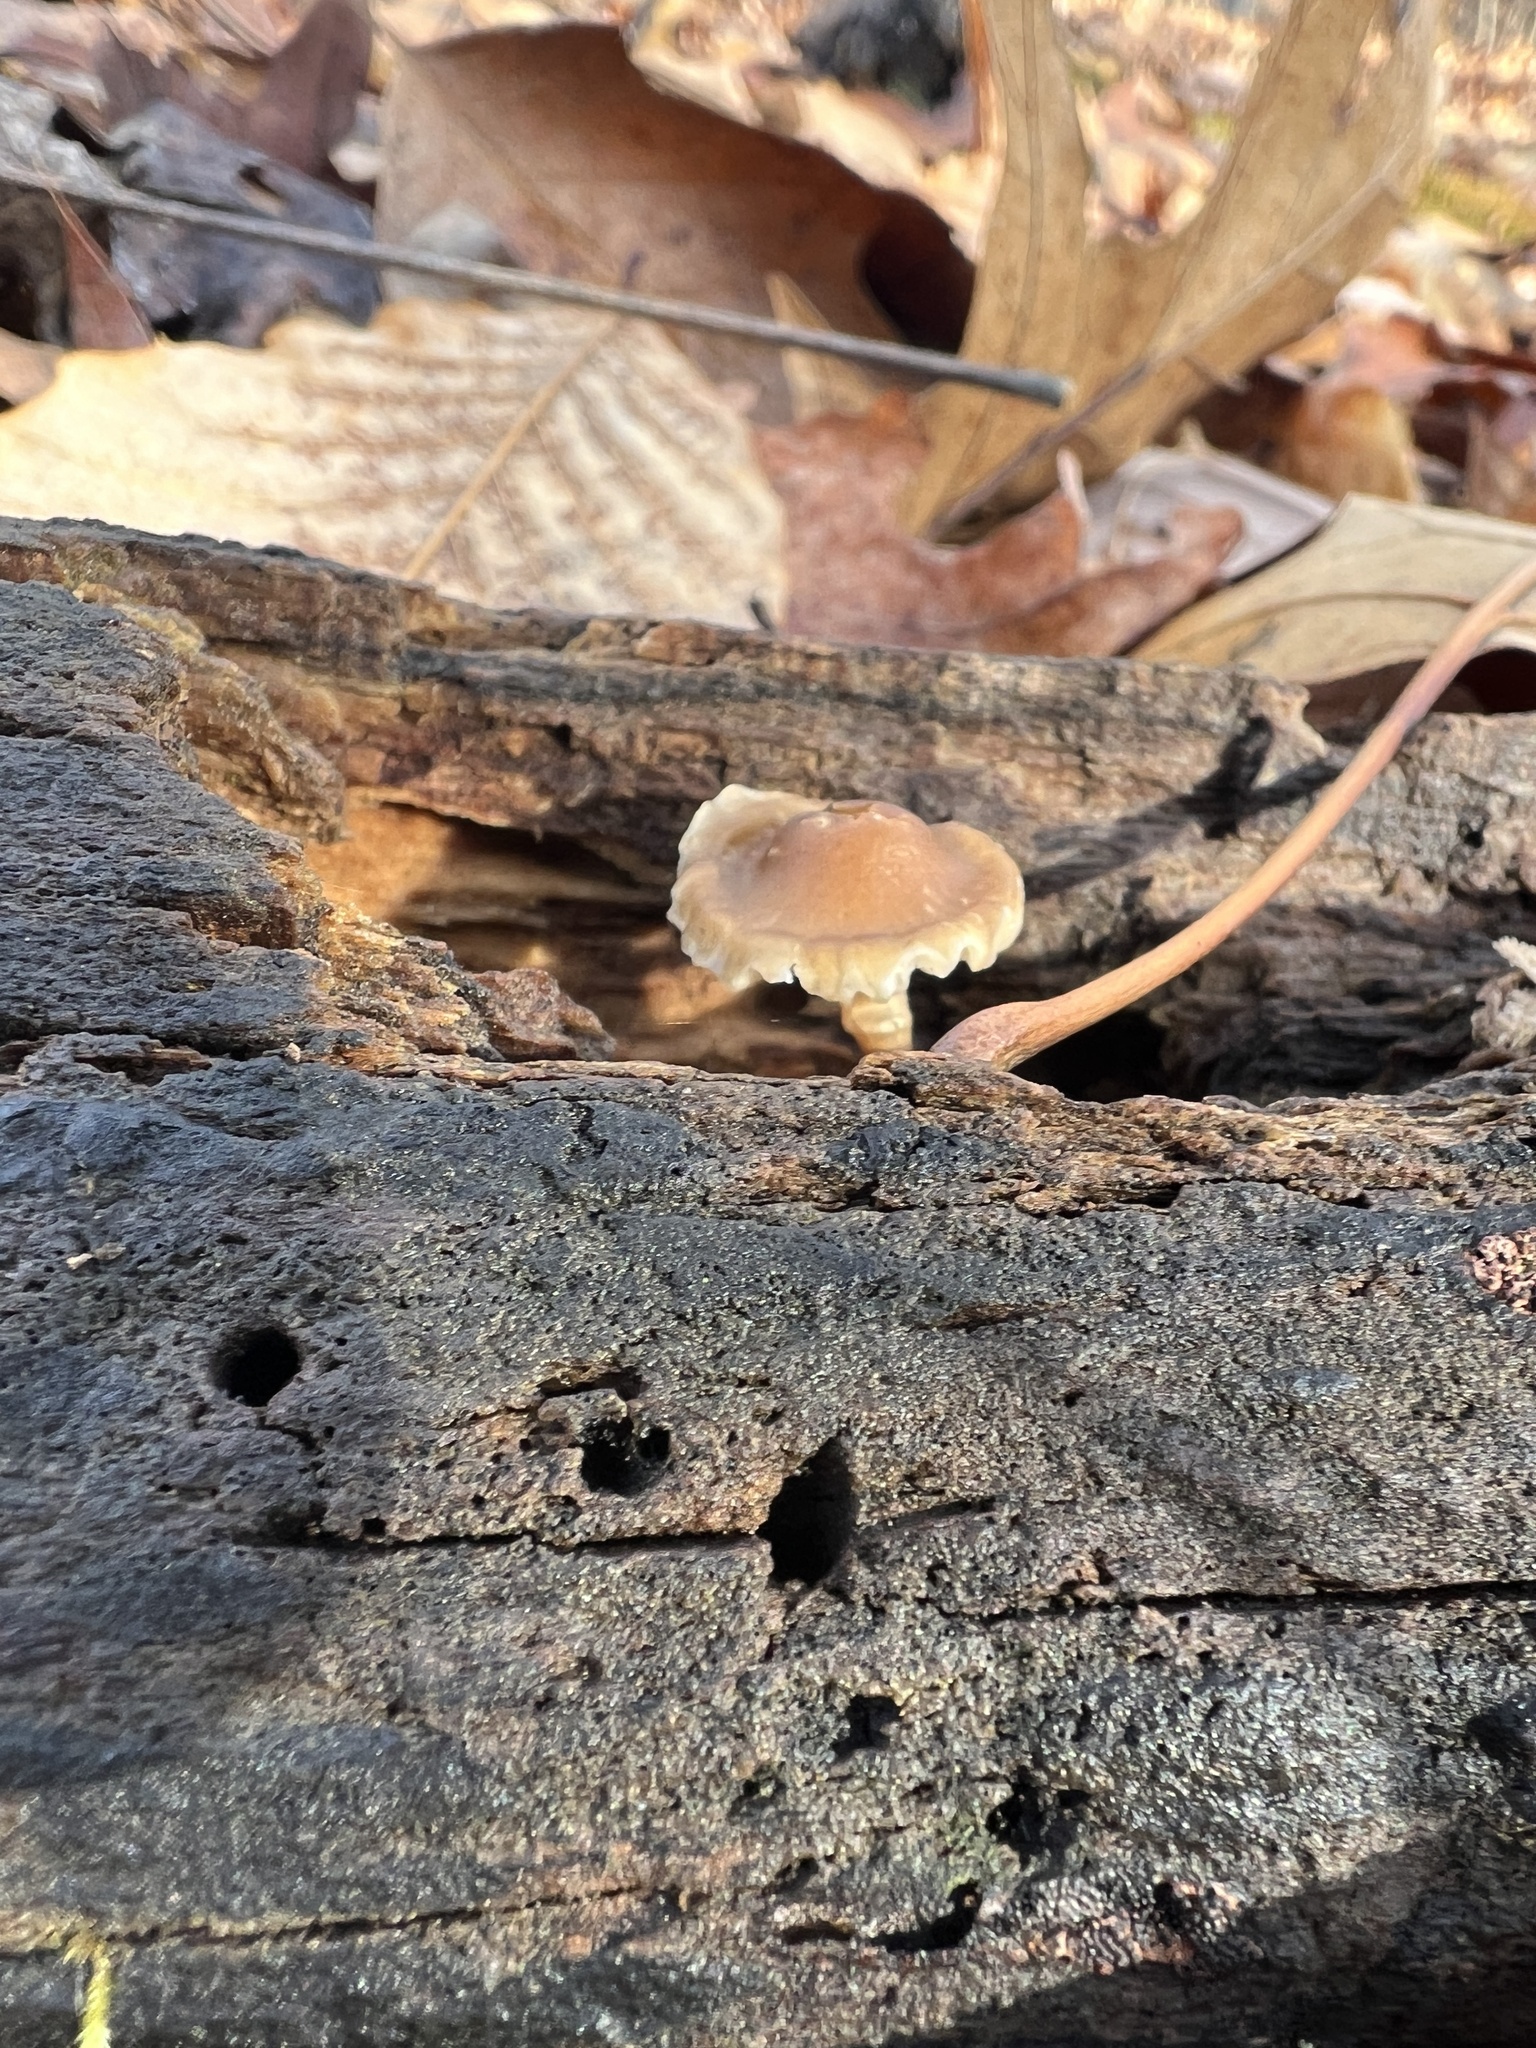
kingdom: Fungi
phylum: Basidiomycota
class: Agaricomycetes
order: Agaricales
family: Mycenaceae
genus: Mycena
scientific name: Mycena galericulata
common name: Bonnet mycena
